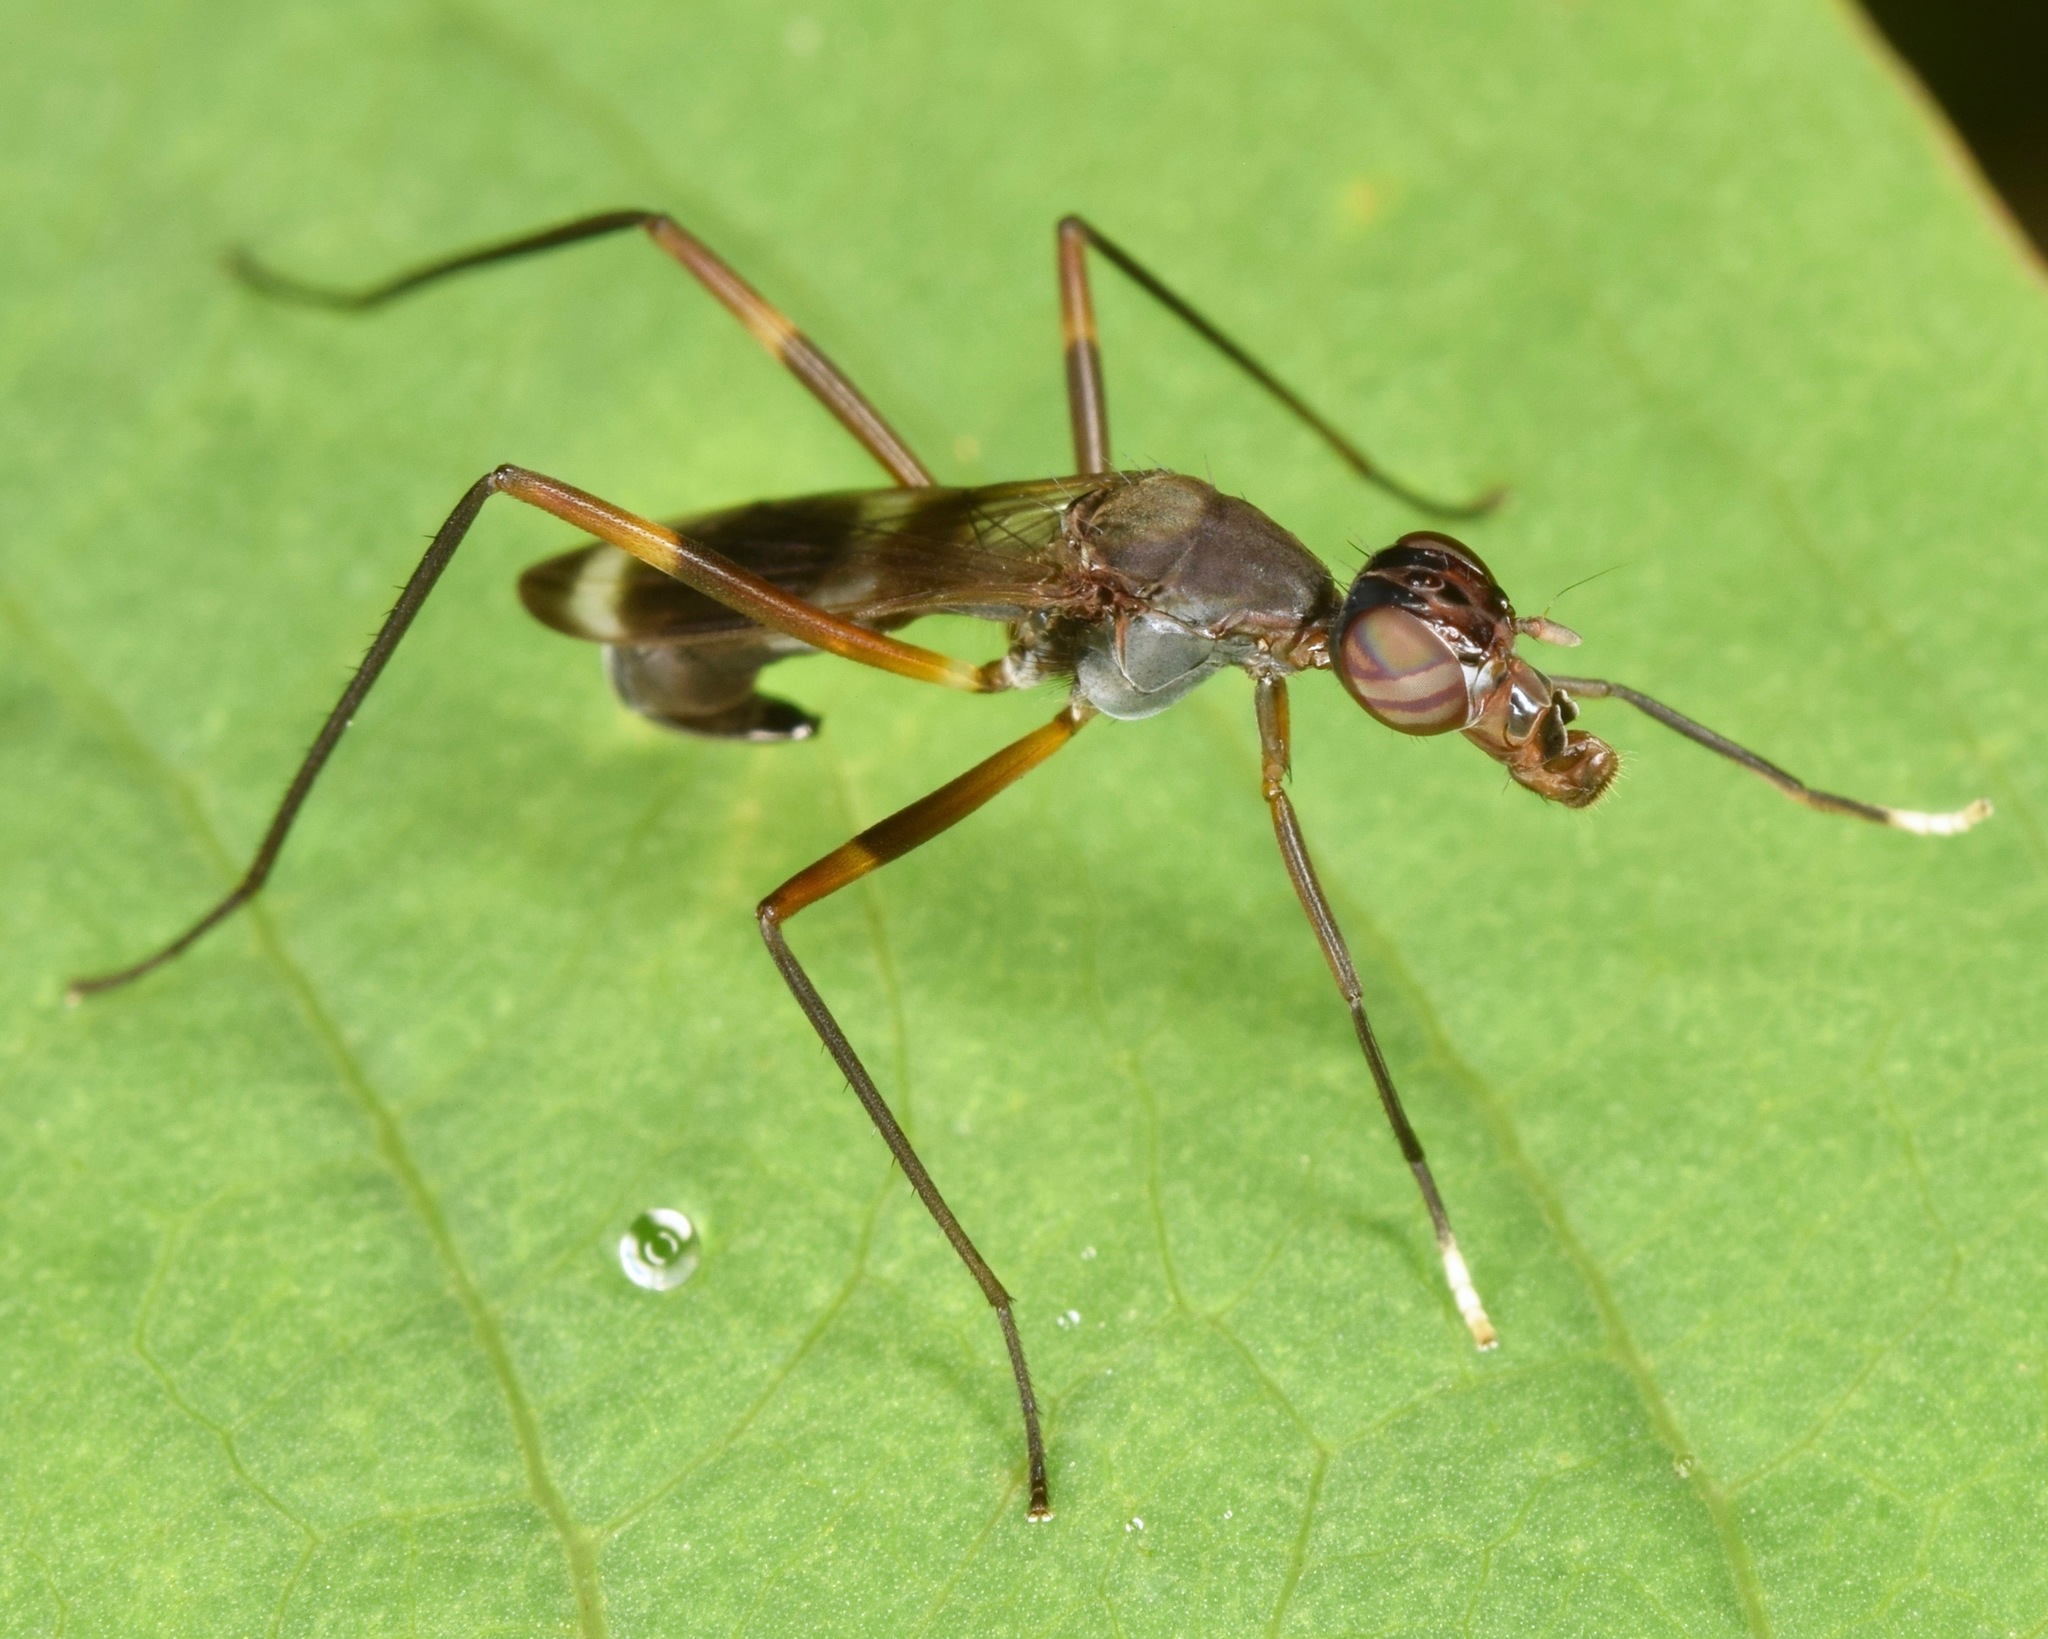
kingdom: Animalia
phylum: Arthropoda
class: Insecta
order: Diptera
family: Micropezidae
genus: Taeniaptera
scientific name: Taeniaptera trivittata
